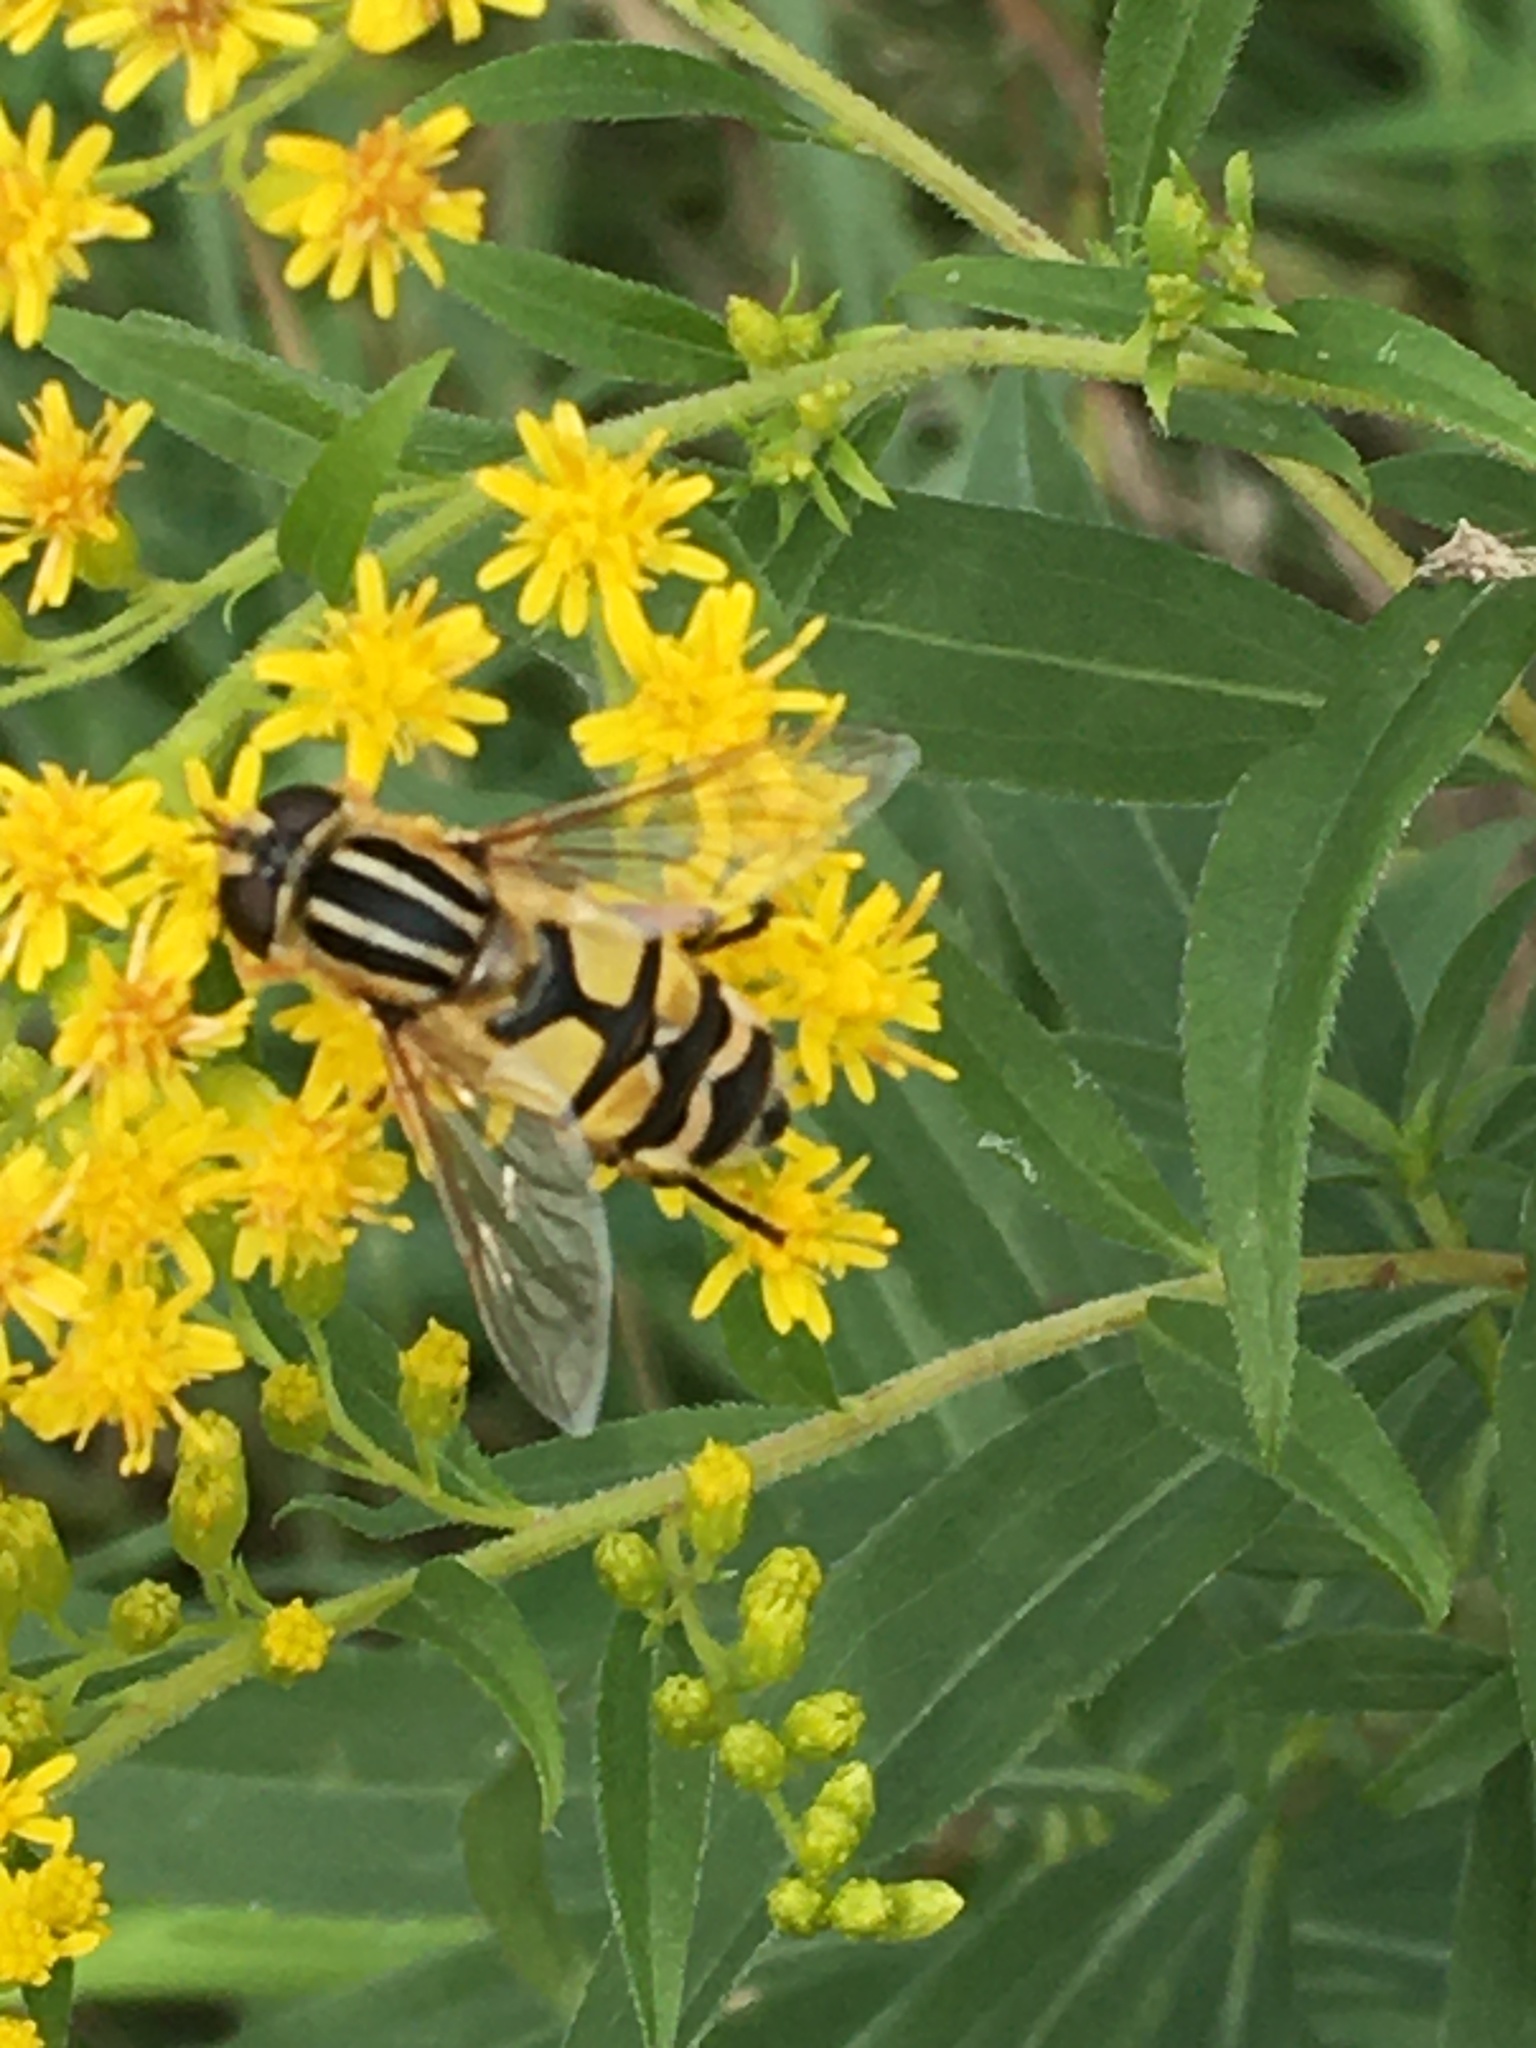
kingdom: Animalia
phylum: Arthropoda
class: Insecta
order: Diptera
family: Syrphidae
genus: Helophilus
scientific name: Helophilus trivittatus
